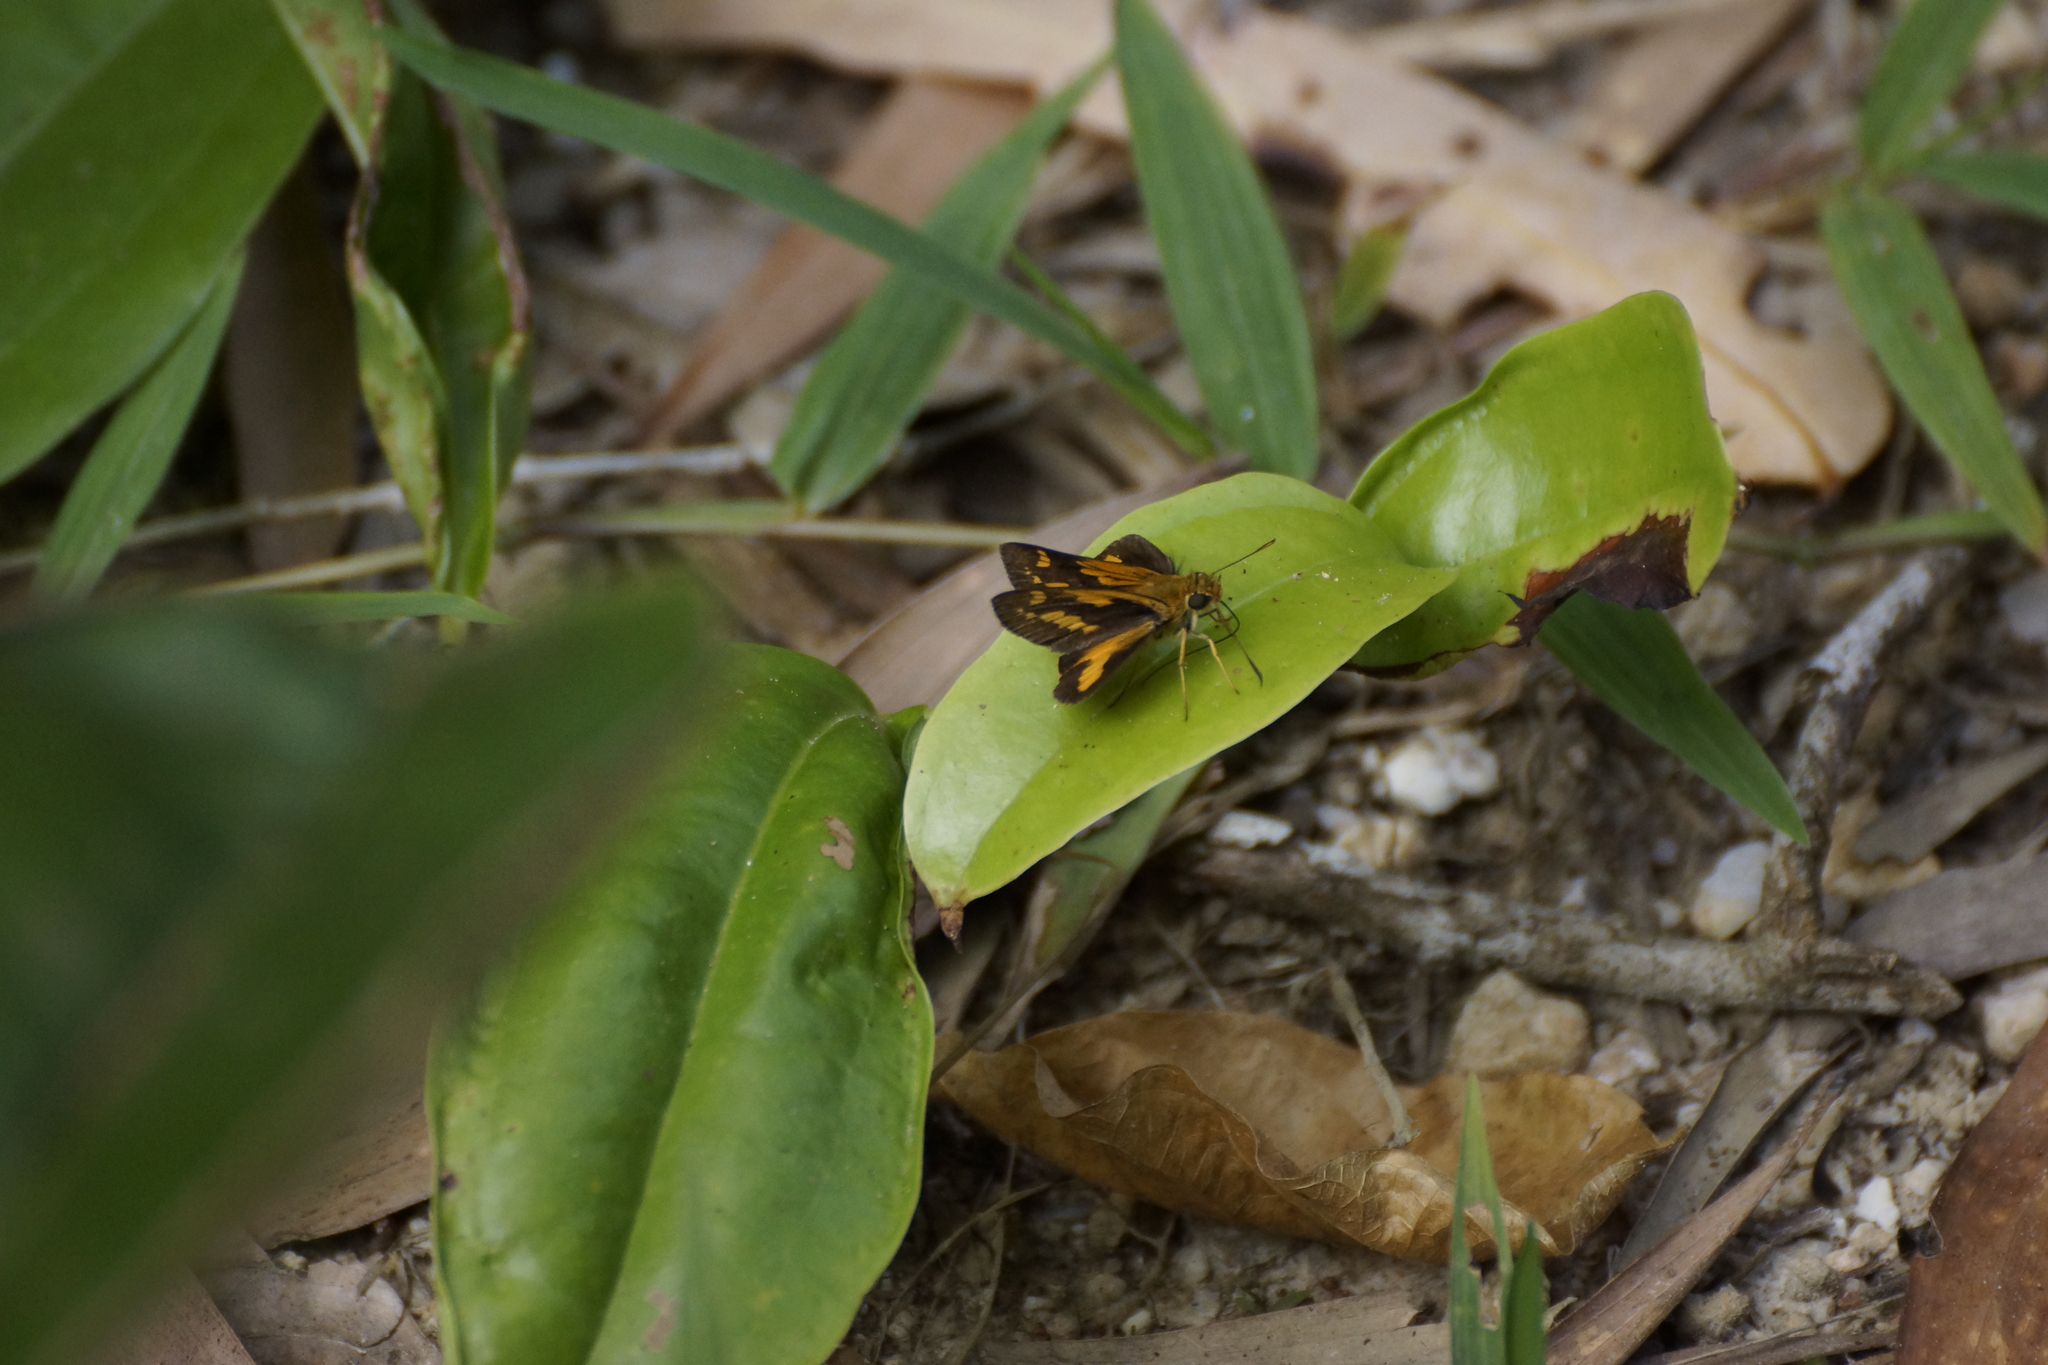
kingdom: Animalia
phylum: Arthropoda
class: Insecta
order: Lepidoptera
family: Hesperiidae
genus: Arrhenes
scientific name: Arrhenes dschilus
